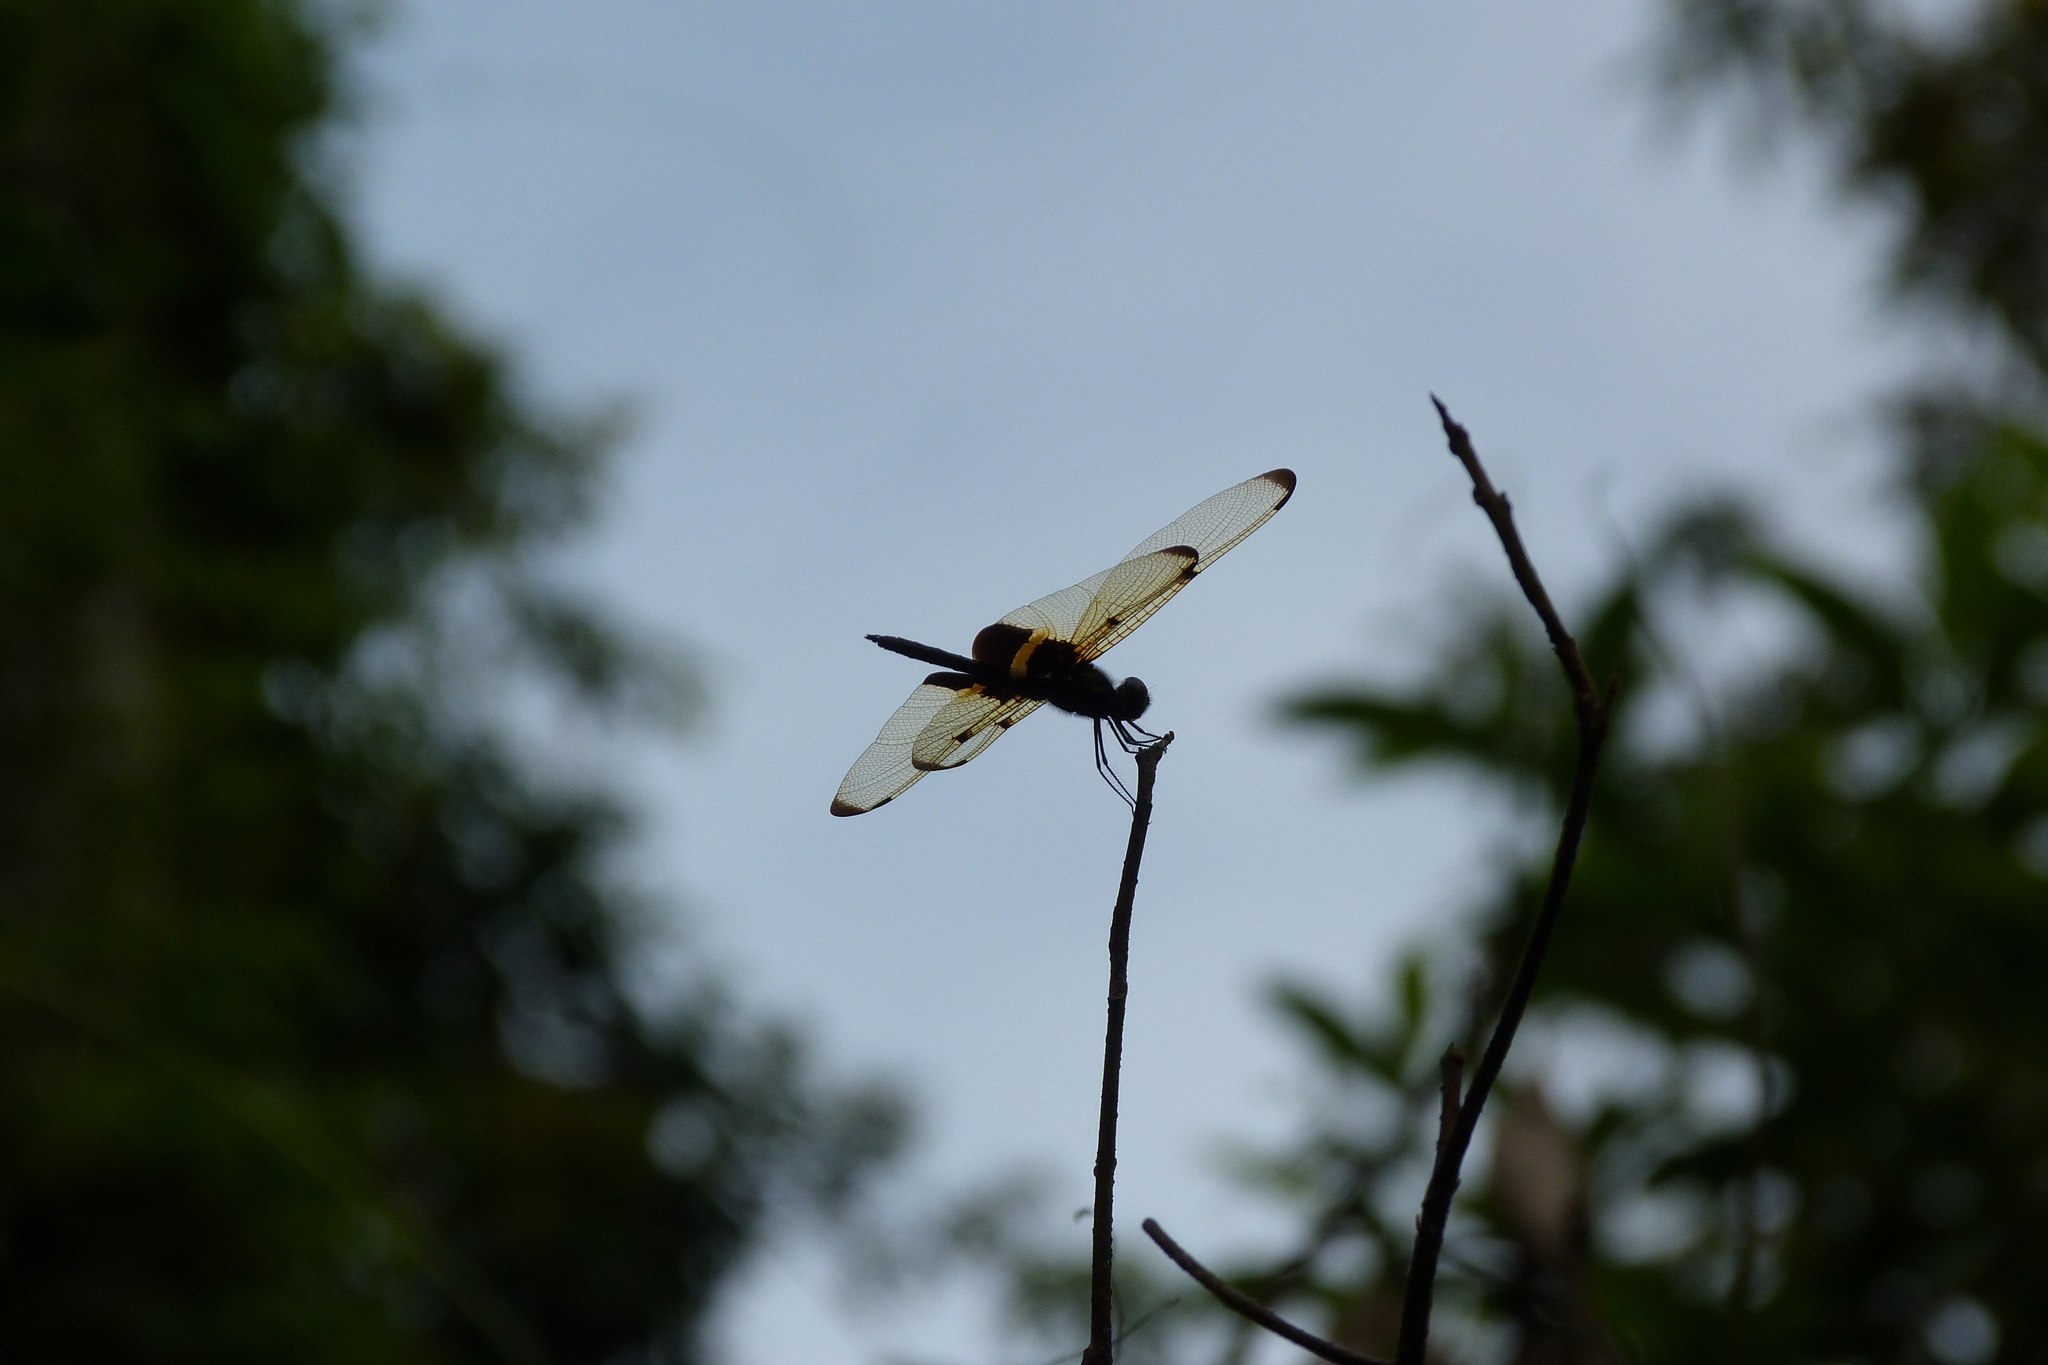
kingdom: Animalia
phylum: Arthropoda
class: Insecta
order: Odonata
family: Libellulidae
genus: Rhyothemis
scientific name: Rhyothemis phyllis
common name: Yellow-barred flutterer
